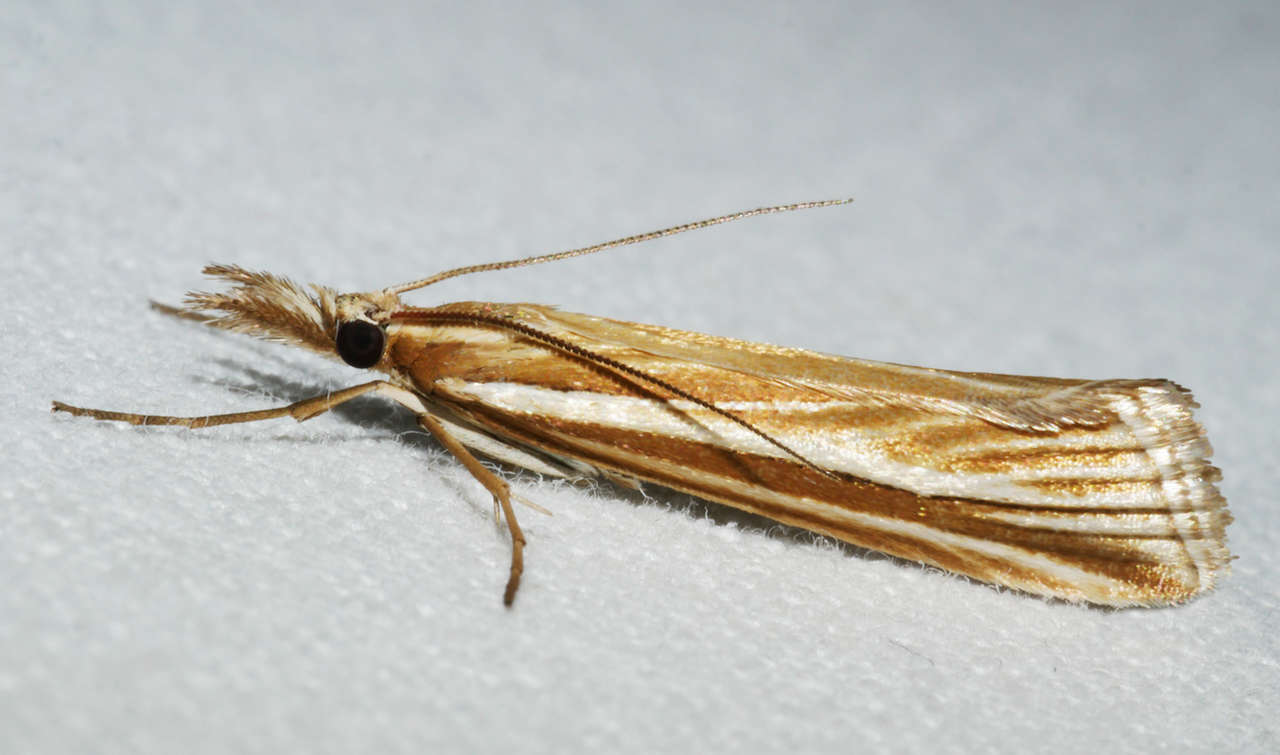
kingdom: Animalia
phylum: Arthropoda
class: Insecta
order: Lepidoptera
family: Crambidae
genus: Hednota
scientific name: Hednota grammellus
